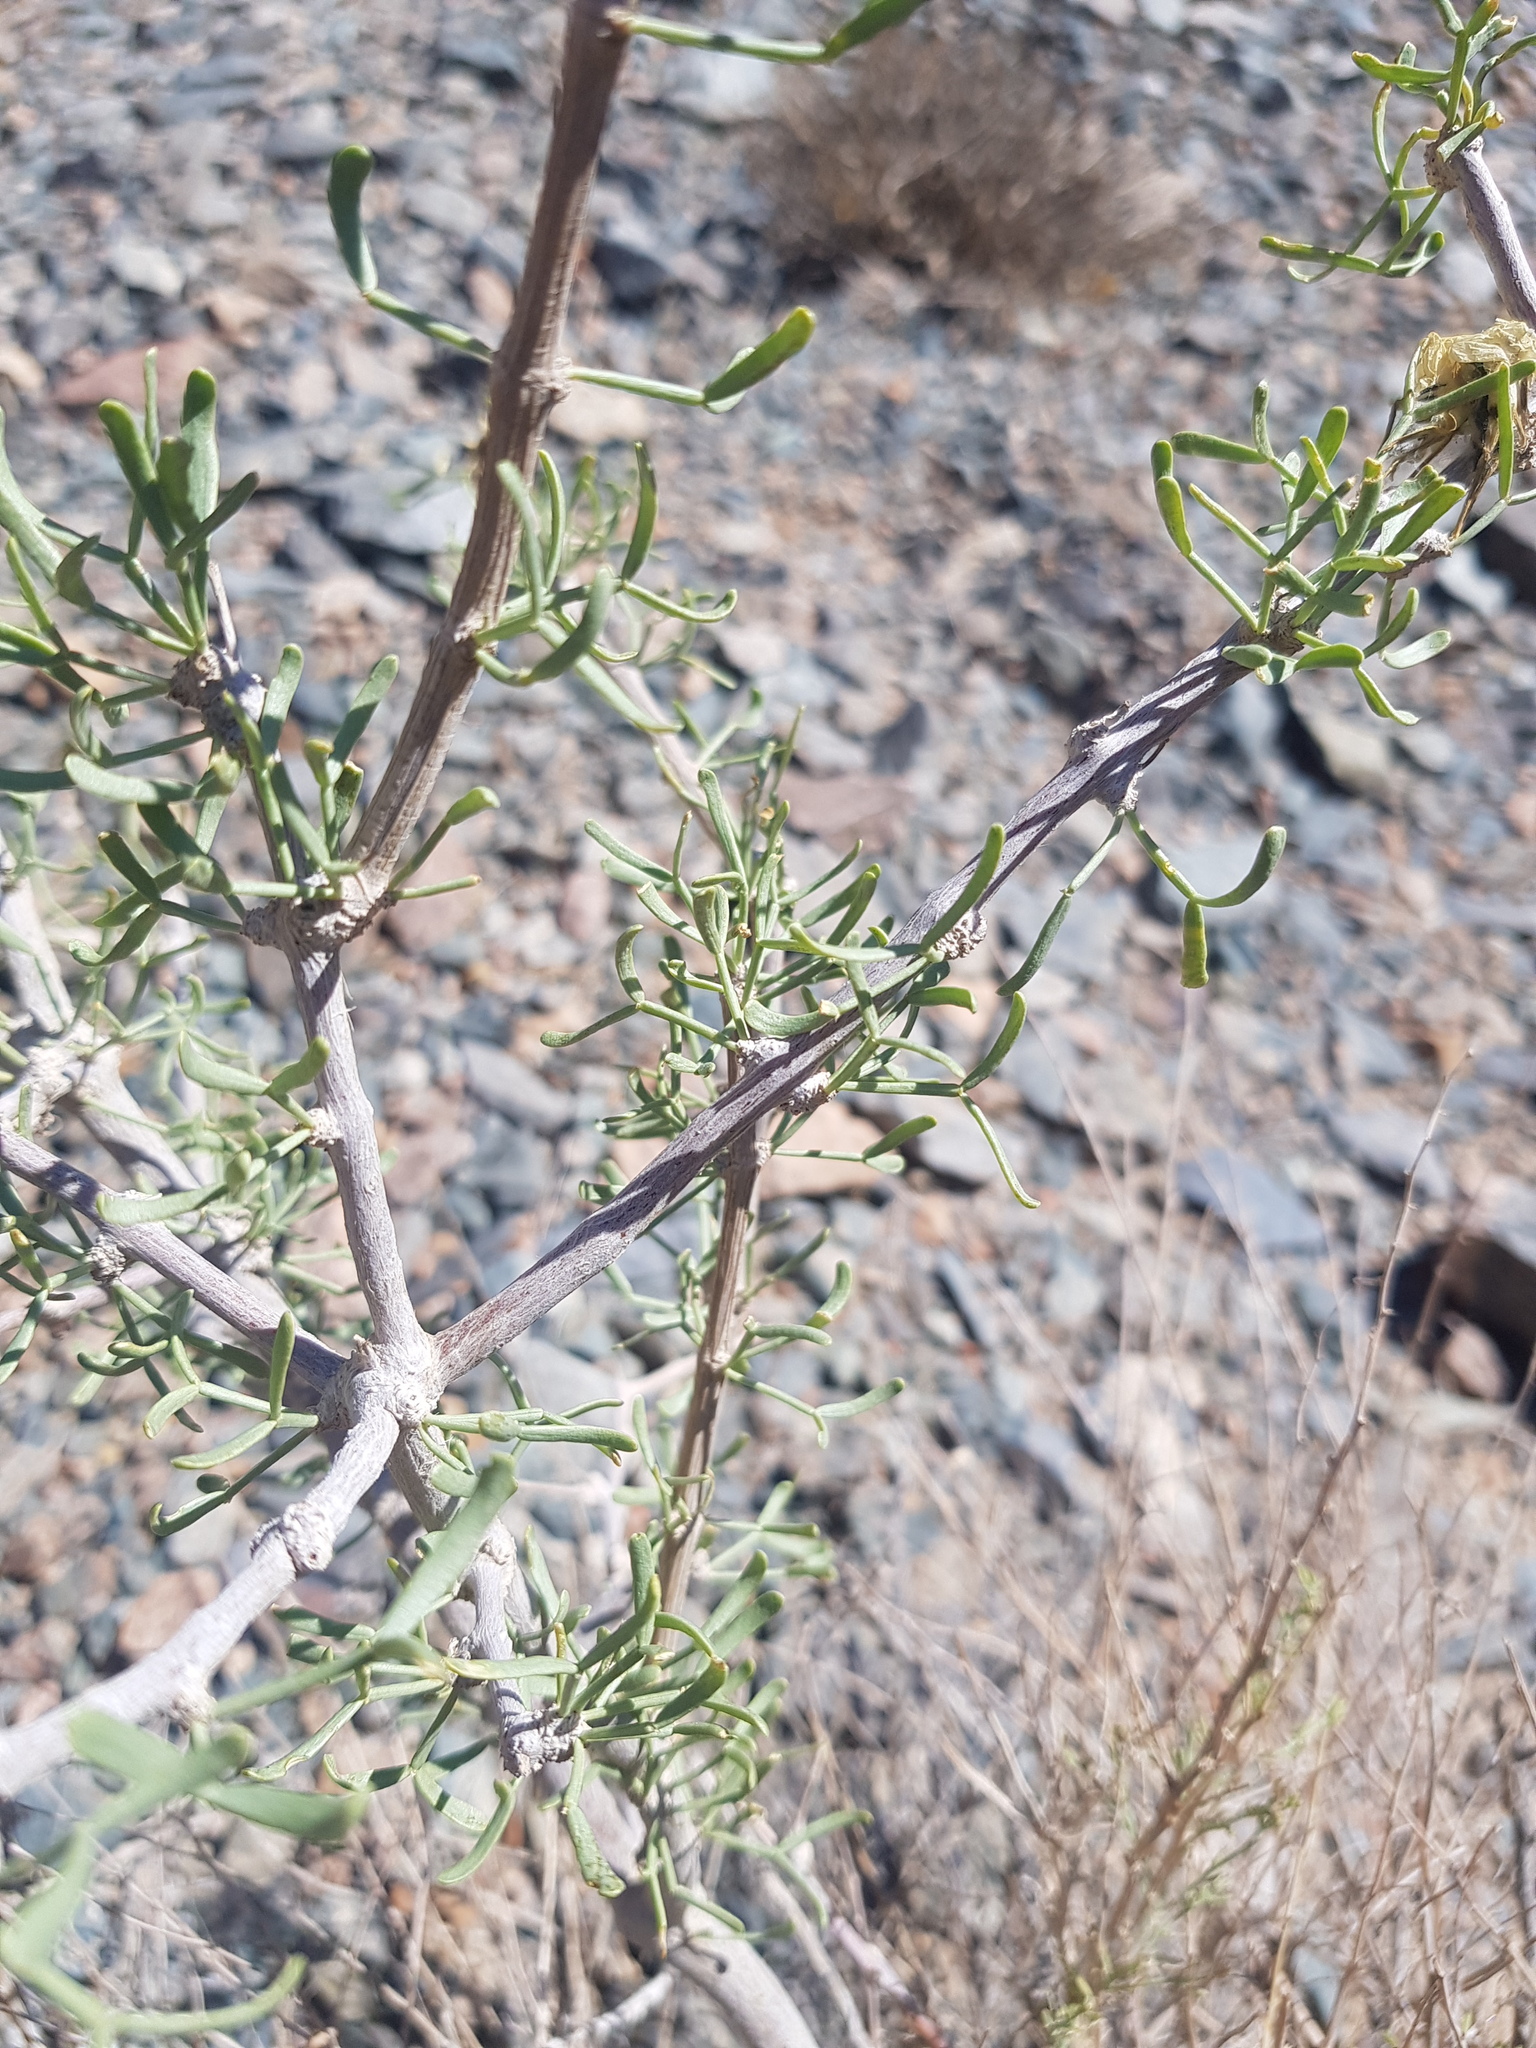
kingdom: Plantae
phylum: Tracheophyta
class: Magnoliopsida
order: Zygophyllales
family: Zygophyllaceae
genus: Zygophyllum
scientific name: Zygophyllum xanthoxylum
